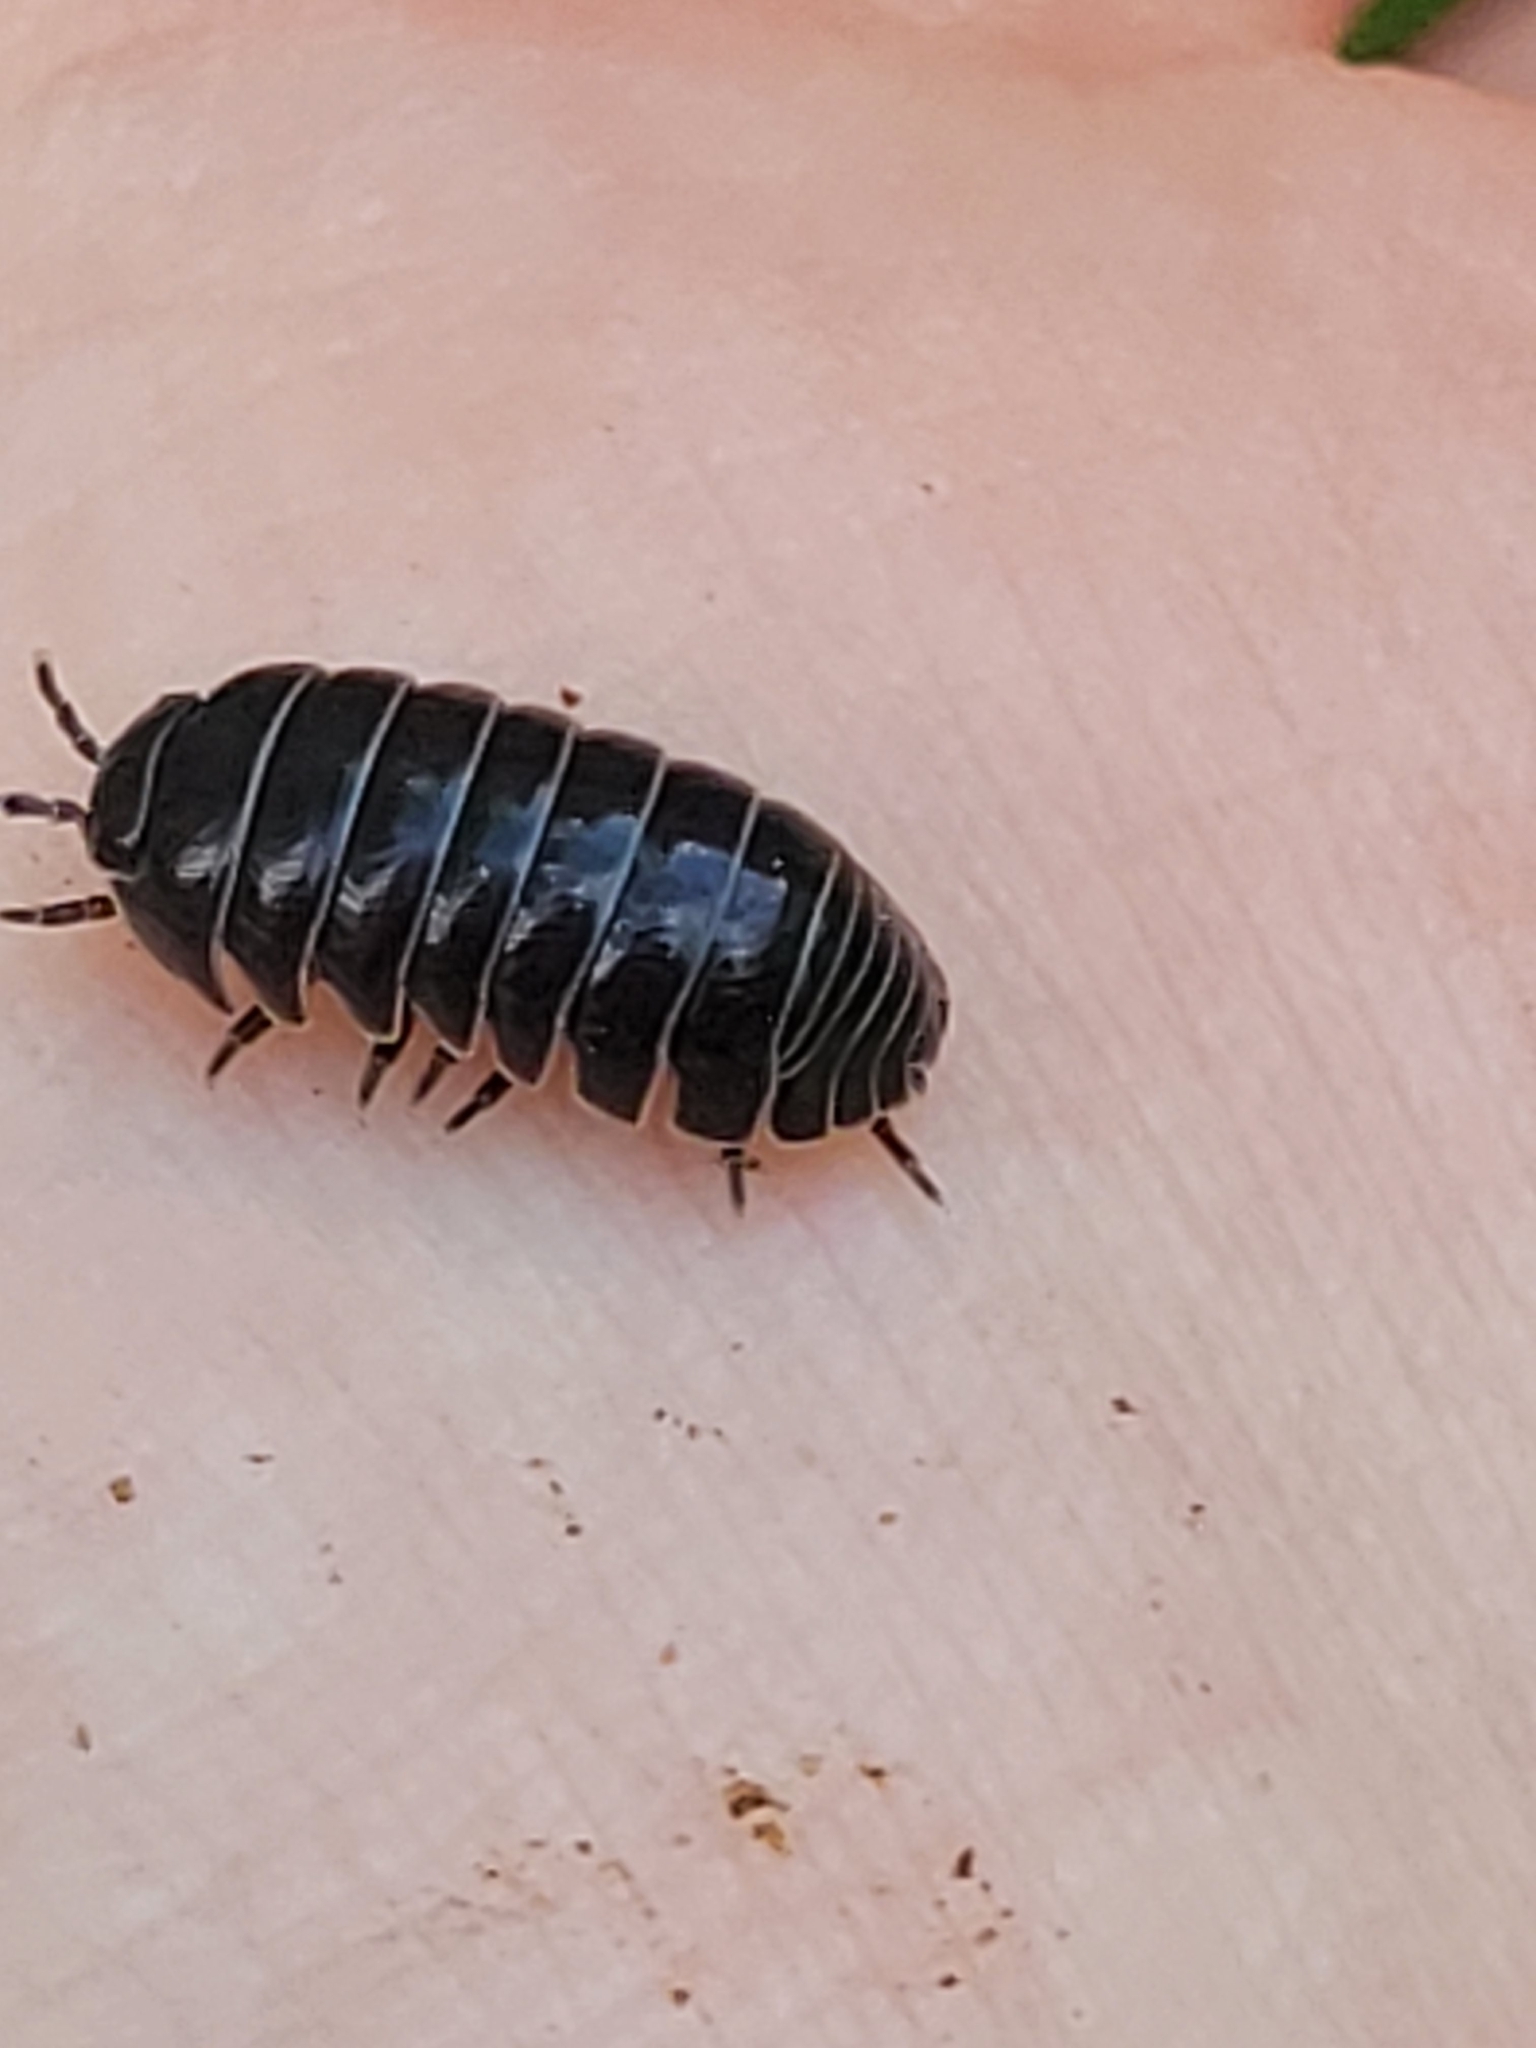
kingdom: Animalia
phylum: Arthropoda
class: Malacostraca
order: Isopoda
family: Armadillidiidae
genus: Armadillidium
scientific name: Armadillidium vulgare
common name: Common pill woodlouse
